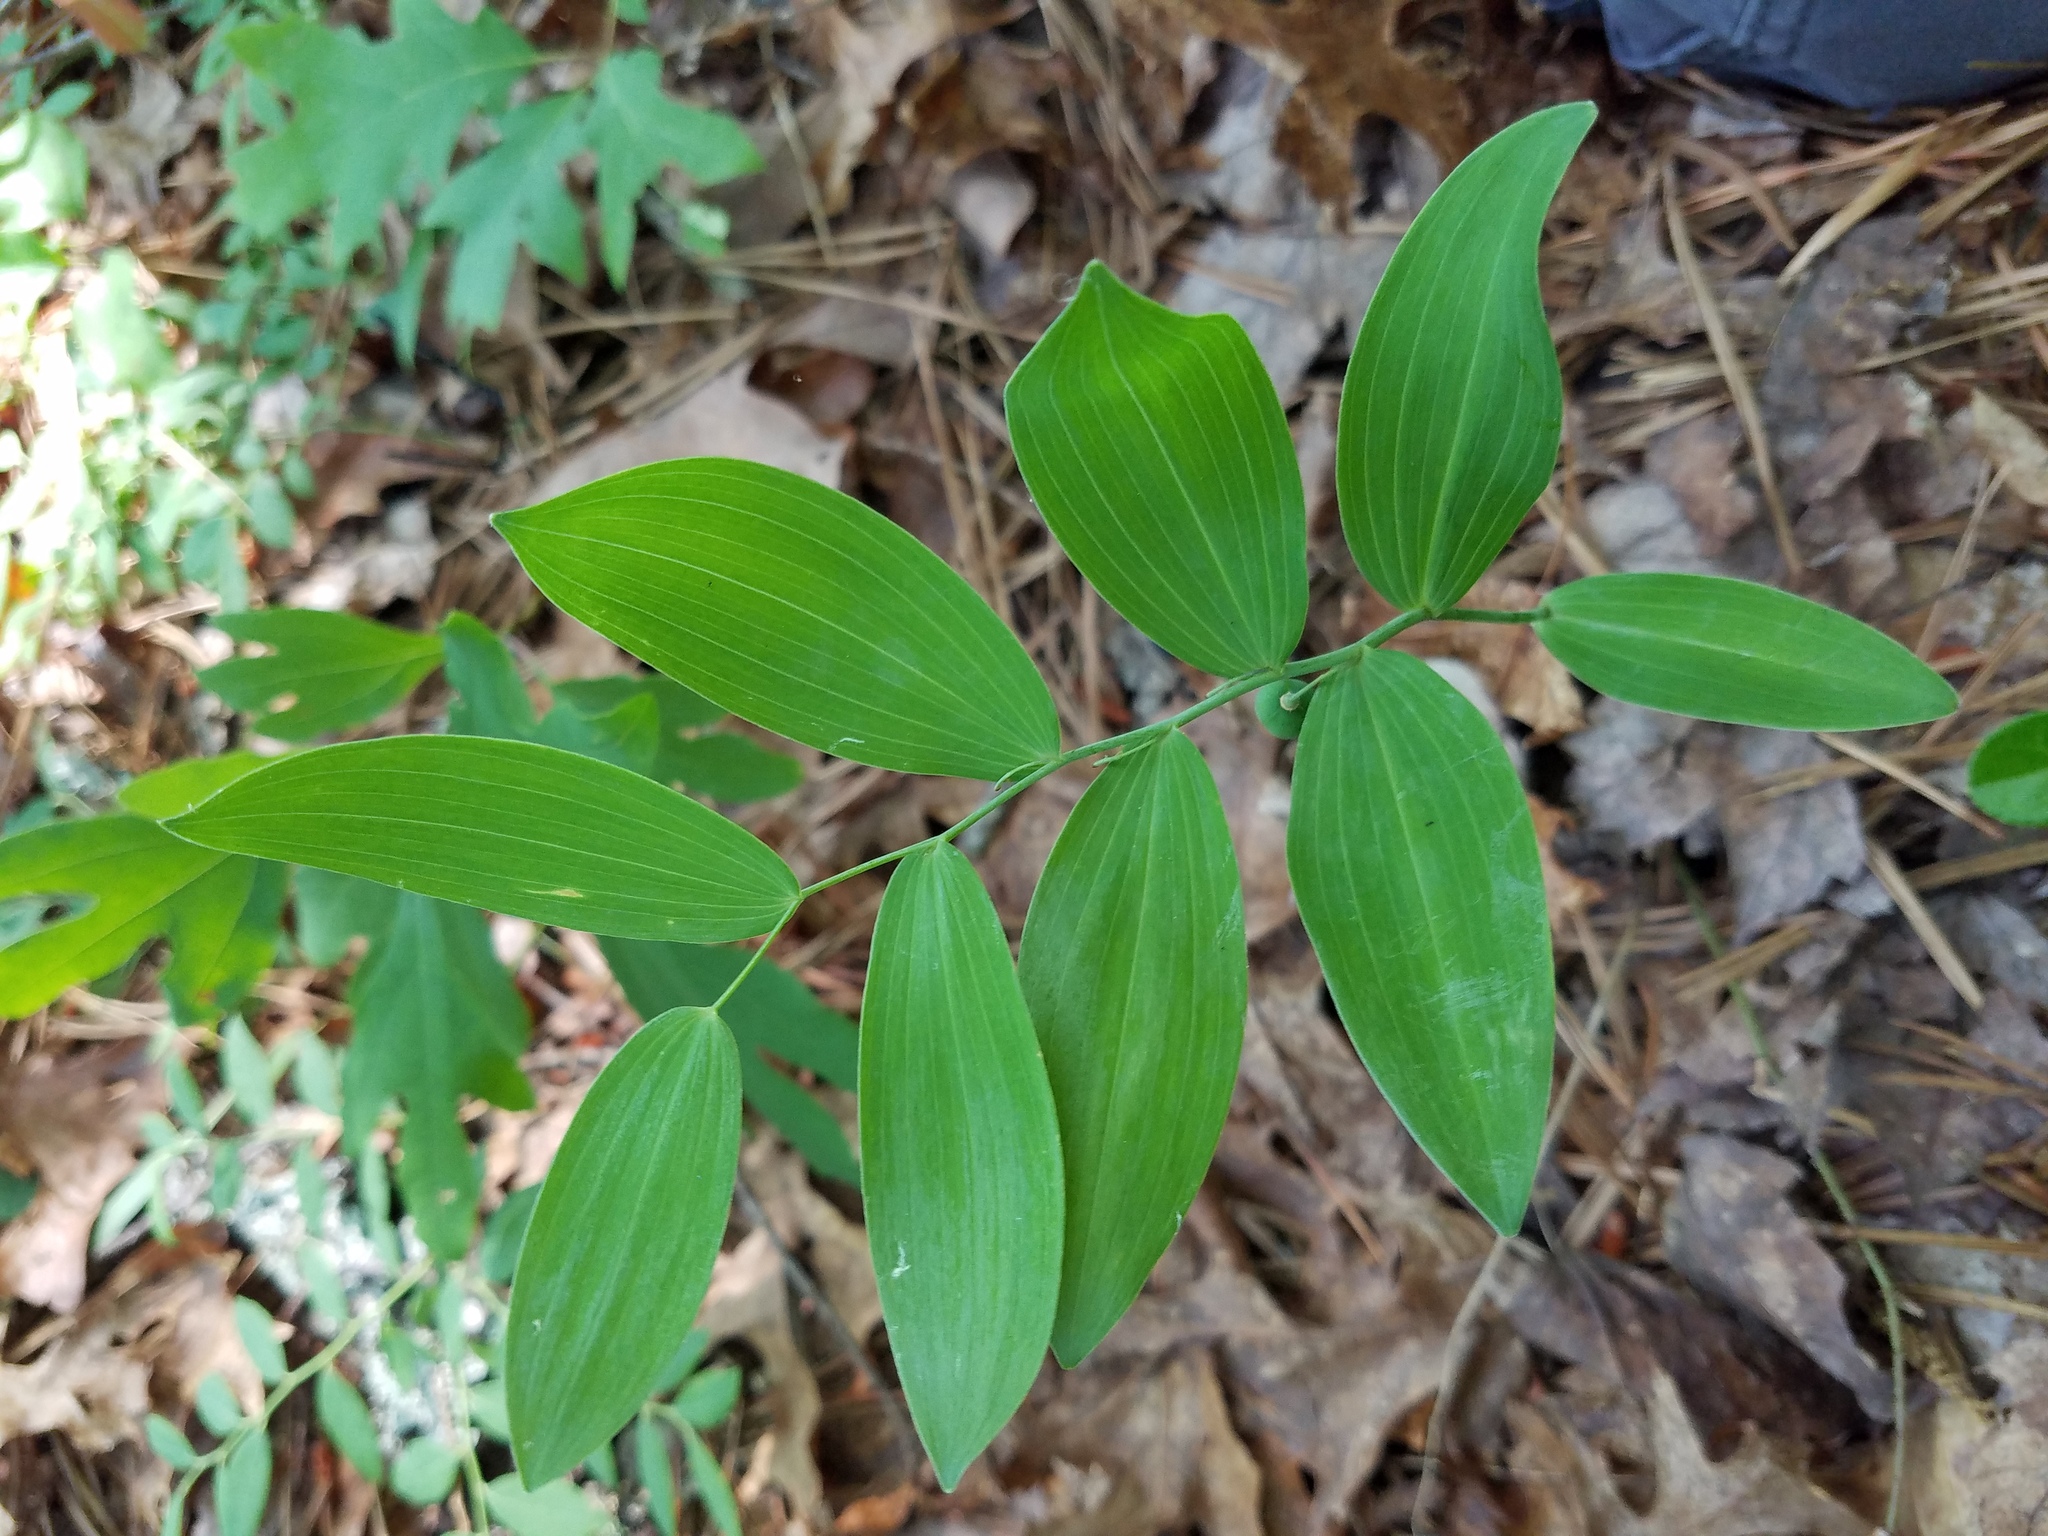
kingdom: Plantae
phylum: Tracheophyta
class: Liliopsida
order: Asparagales
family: Asparagaceae
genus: Polygonatum
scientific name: Polygonatum biflorum
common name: American solomon's-seal
